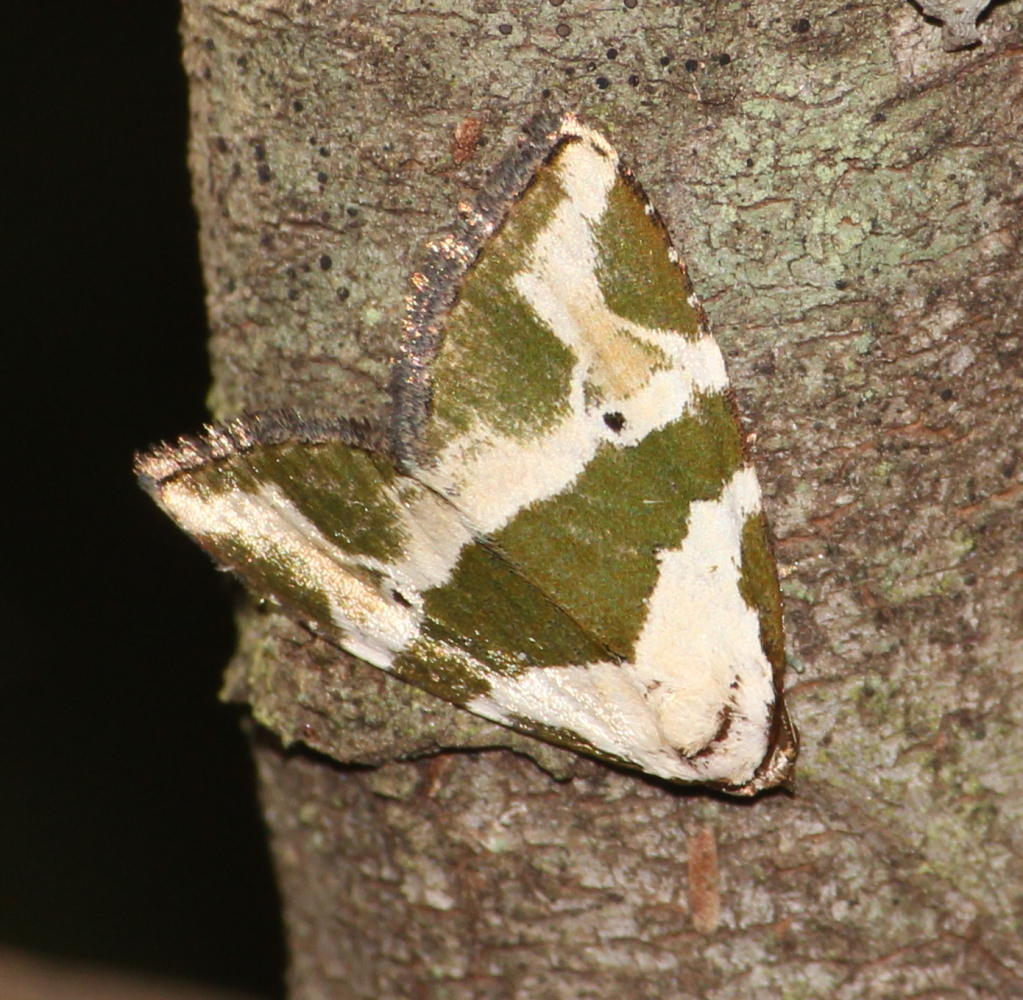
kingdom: Animalia
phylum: Arthropoda
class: Insecta
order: Lepidoptera
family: Noctuidae
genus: Eustrotia
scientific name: Eustrotia olivula
